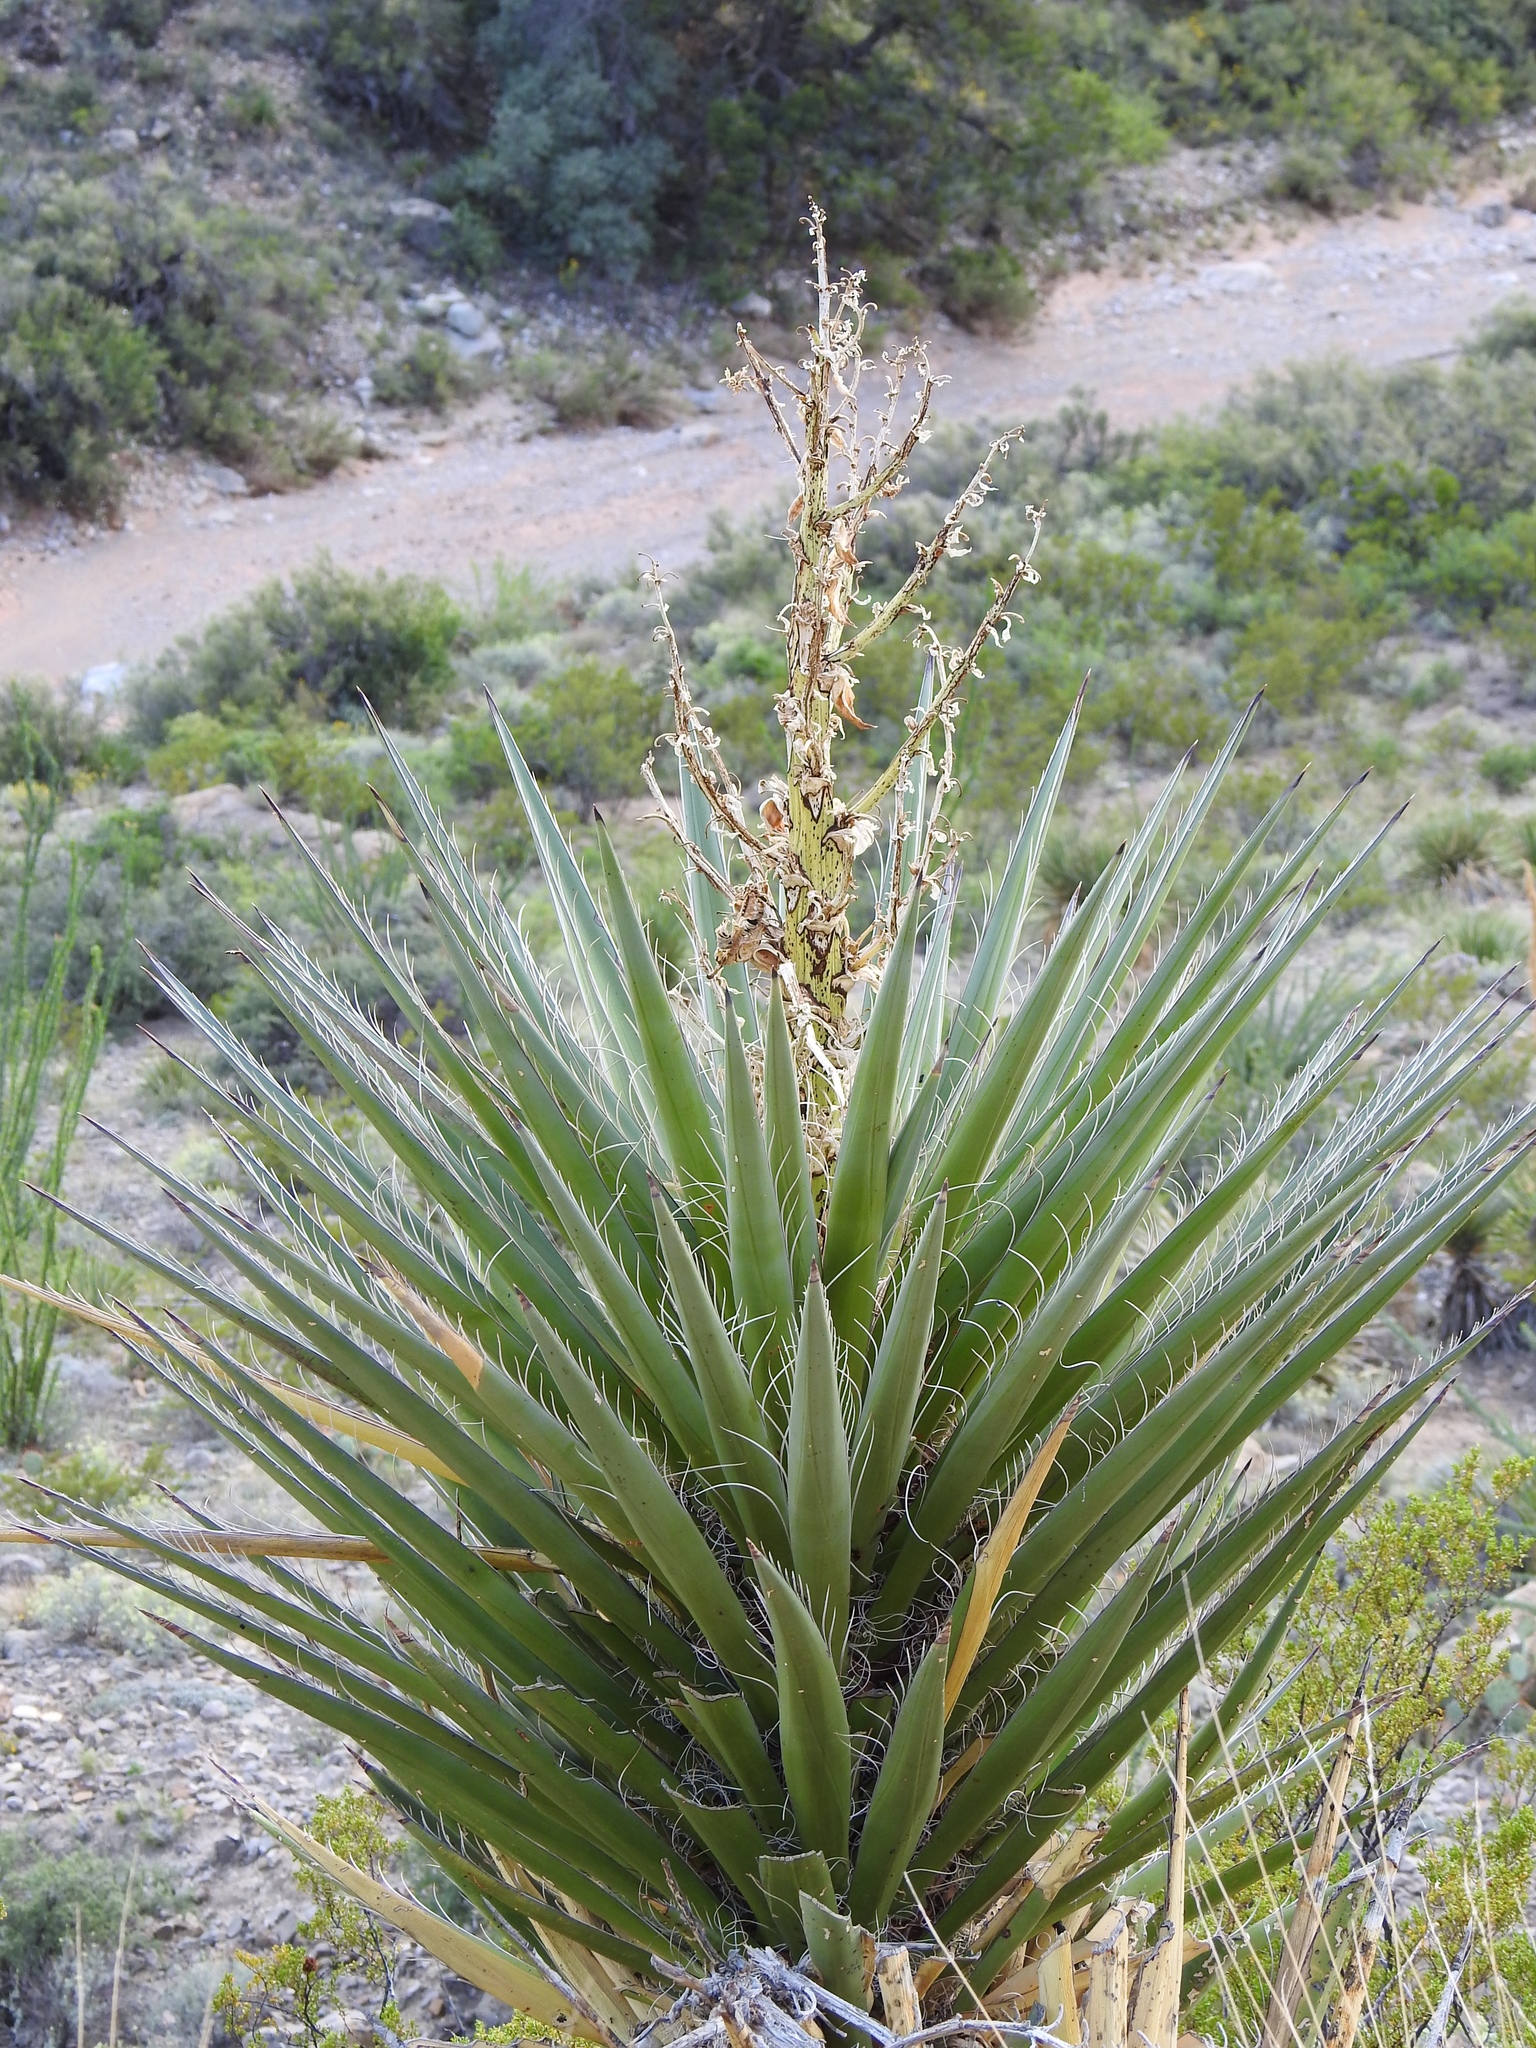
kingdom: Plantae
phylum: Tracheophyta
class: Liliopsida
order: Asparagales
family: Asparagaceae
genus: Yucca
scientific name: Yucca treculiana
